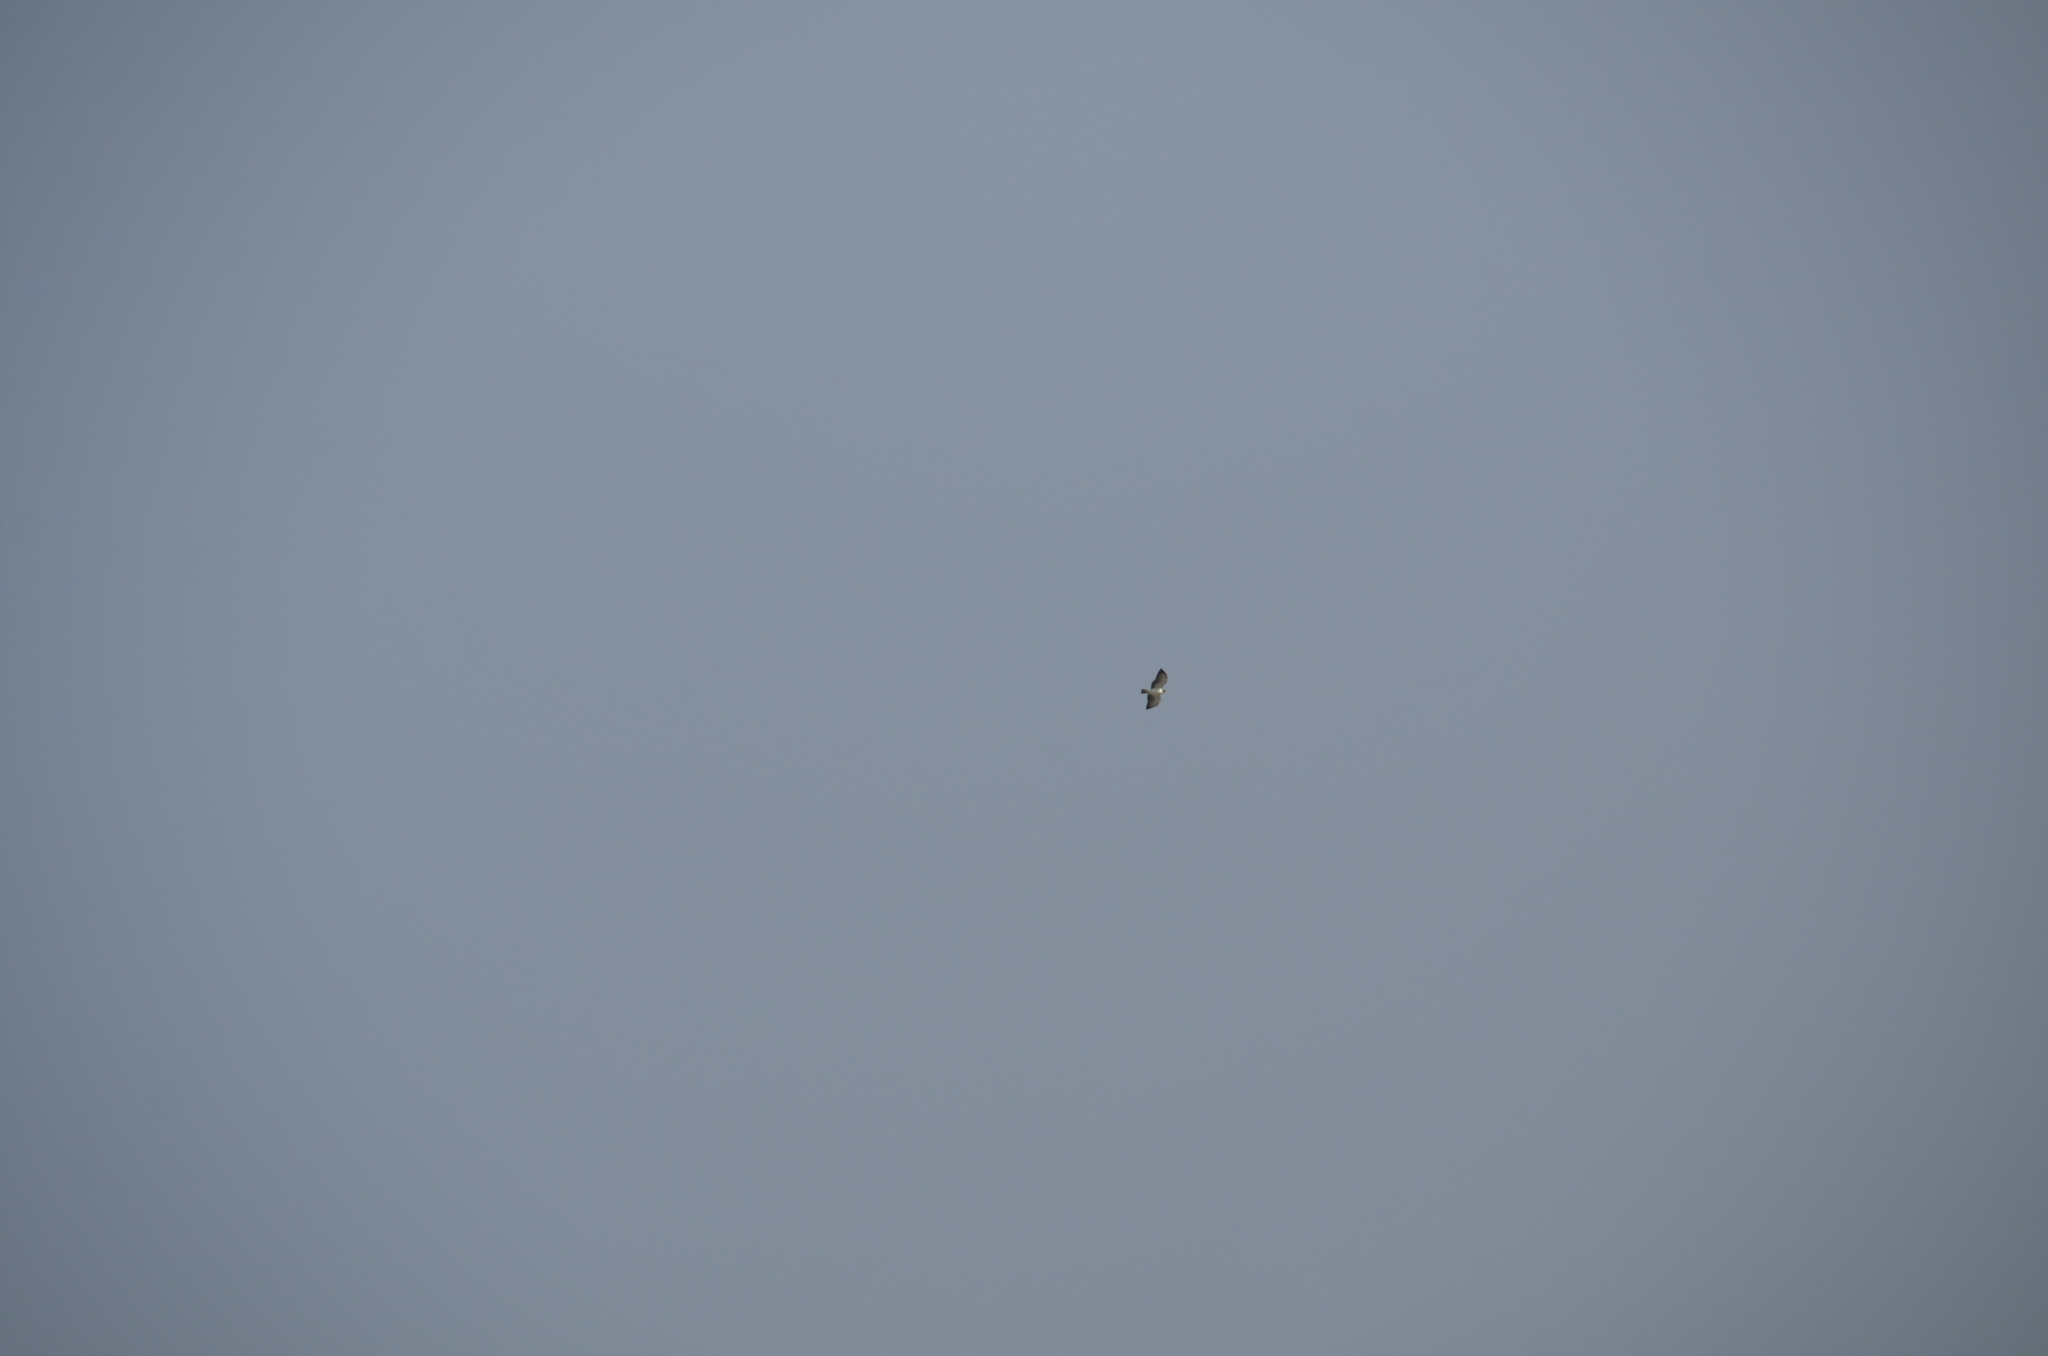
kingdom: Animalia
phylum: Chordata
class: Aves
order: Accipitriformes
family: Accipitridae
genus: Buteo
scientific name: Buteo brachyurus
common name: Short-tailed hawk
